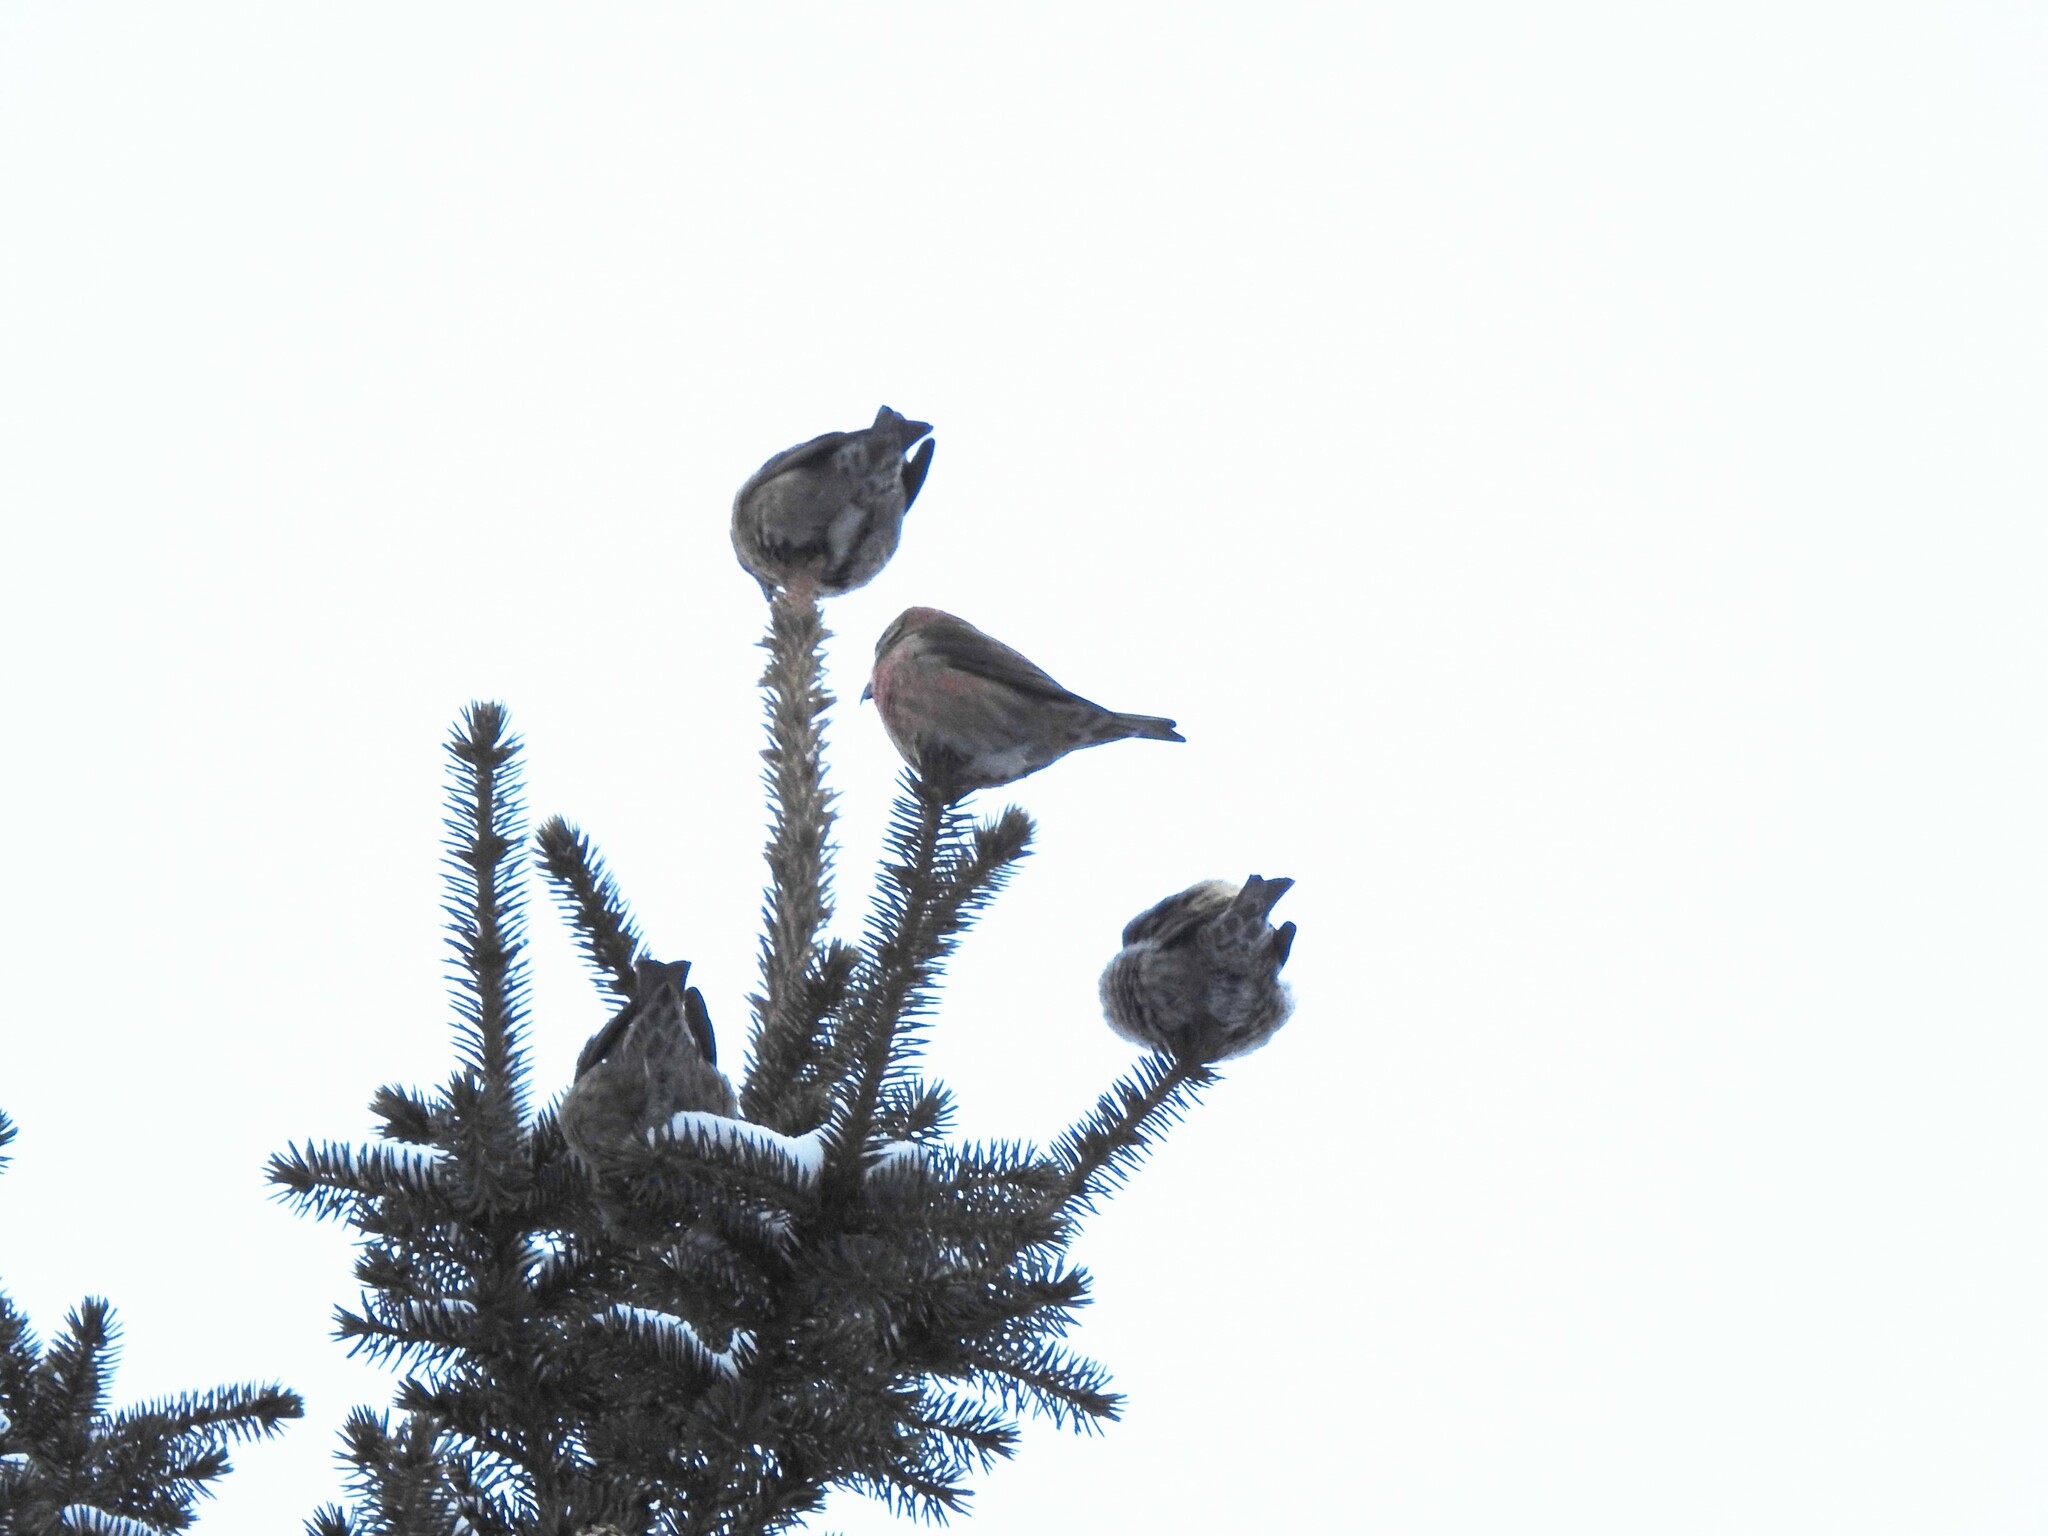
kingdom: Animalia
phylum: Chordata
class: Aves
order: Passeriformes
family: Fringillidae
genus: Loxia
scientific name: Loxia curvirostra
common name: Red crossbill
